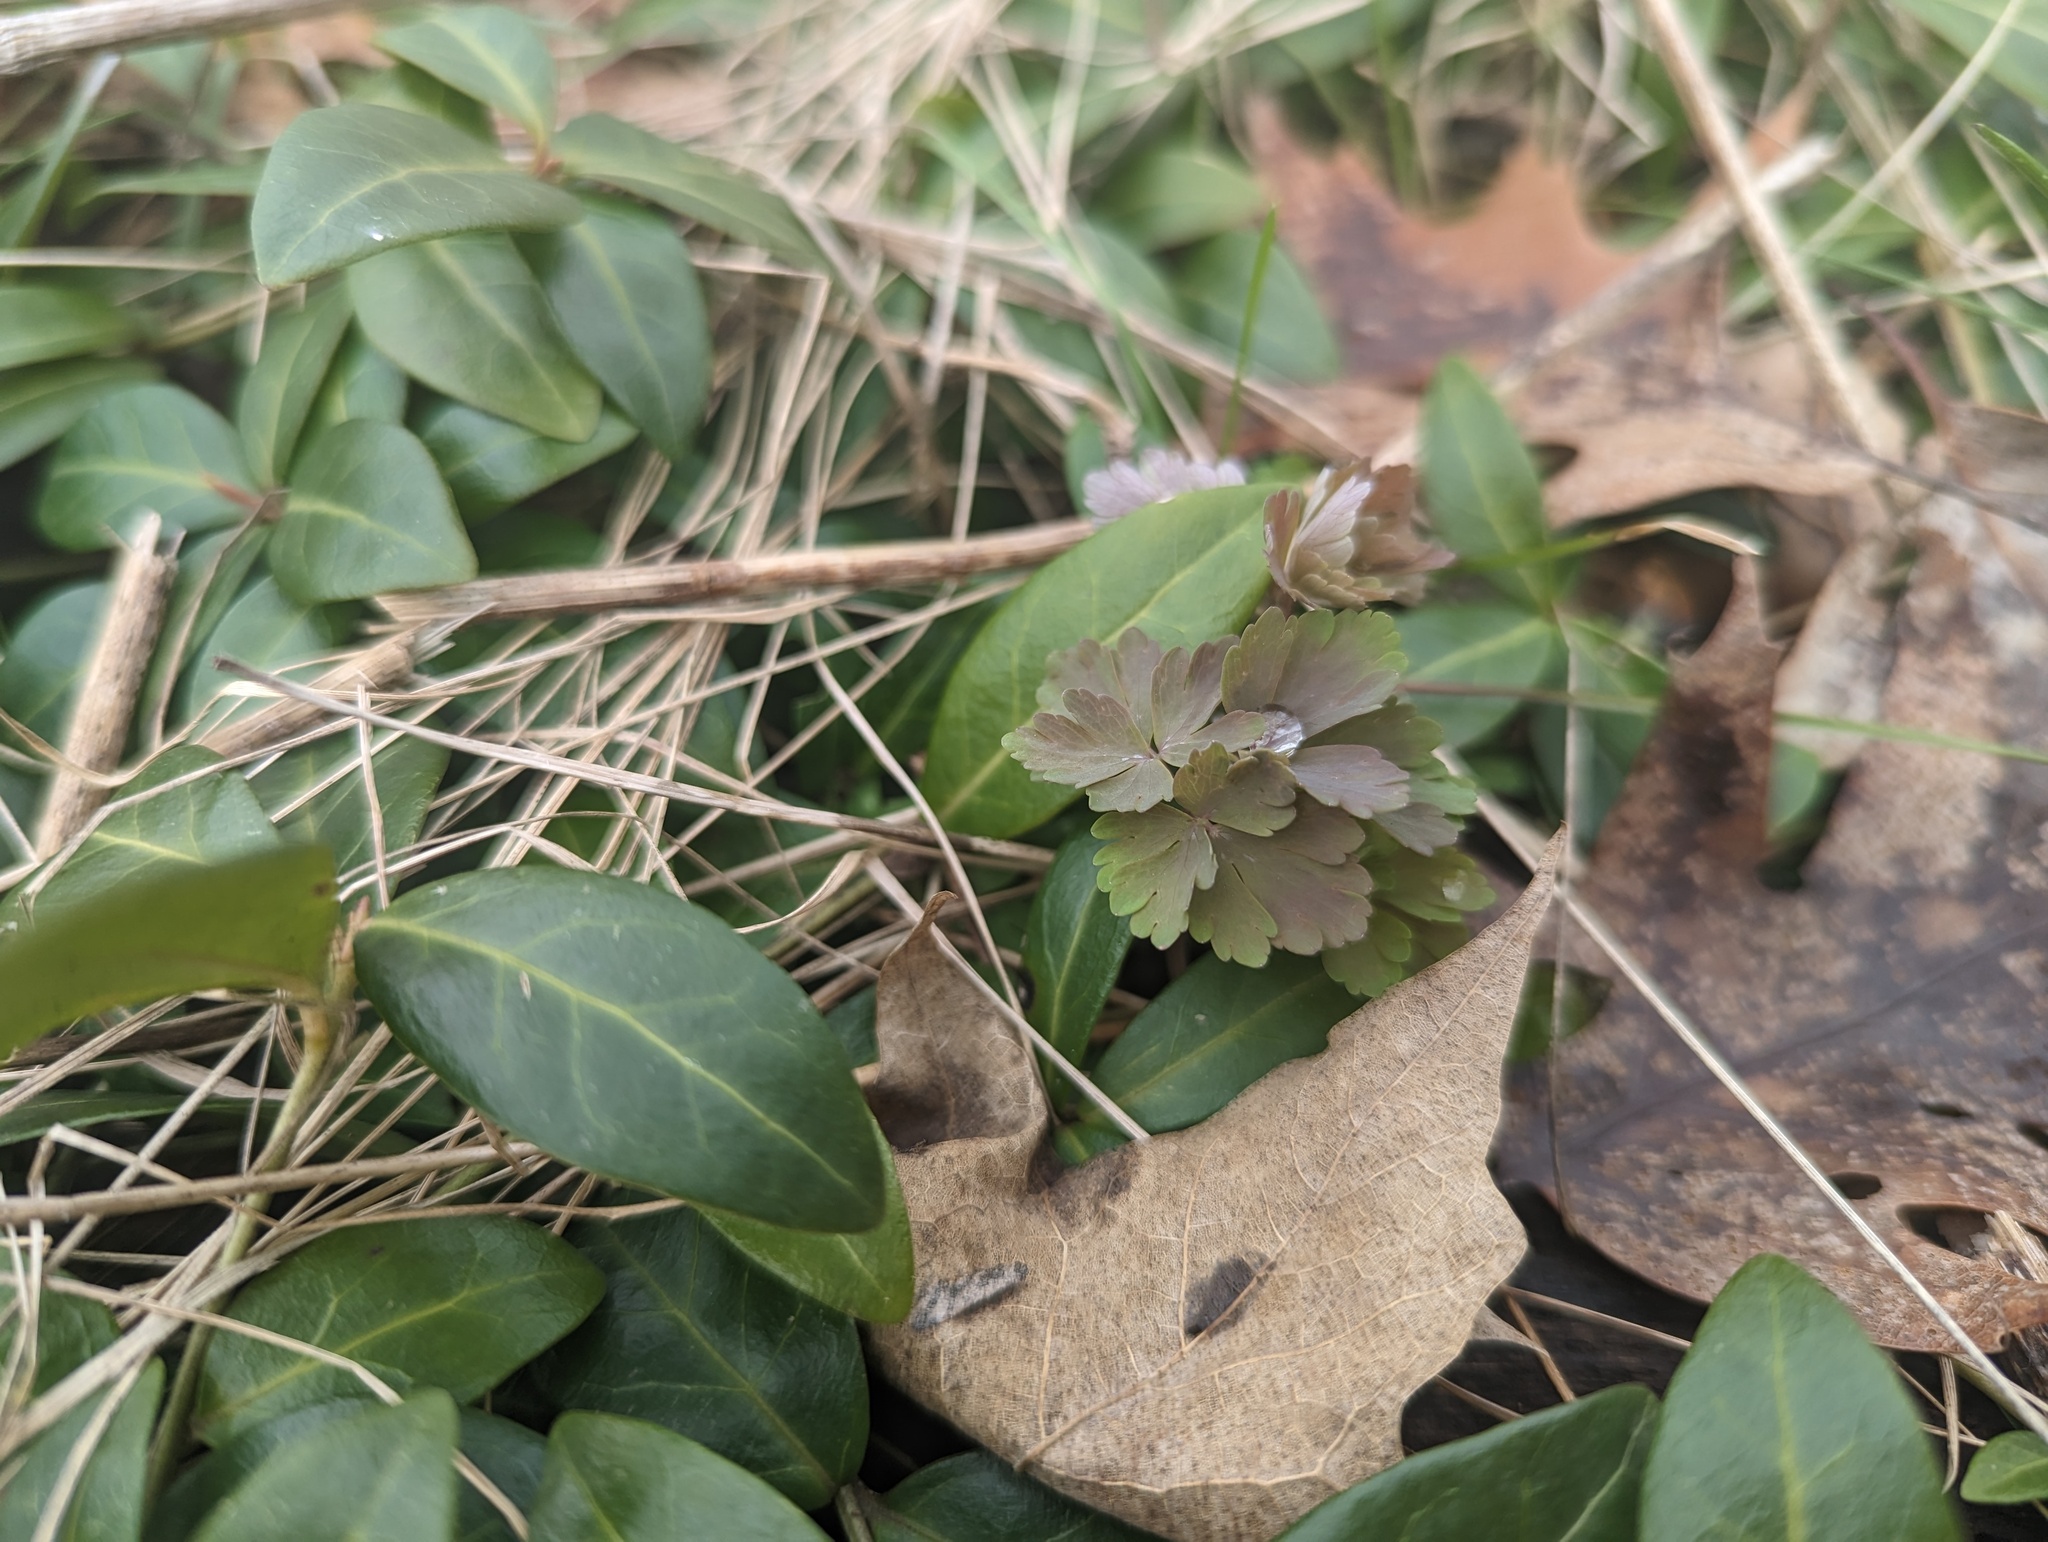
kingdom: Plantae
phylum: Tracheophyta
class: Magnoliopsida
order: Ranunculales
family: Ranunculaceae
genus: Aquilegia
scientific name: Aquilegia canadensis
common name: American columbine
